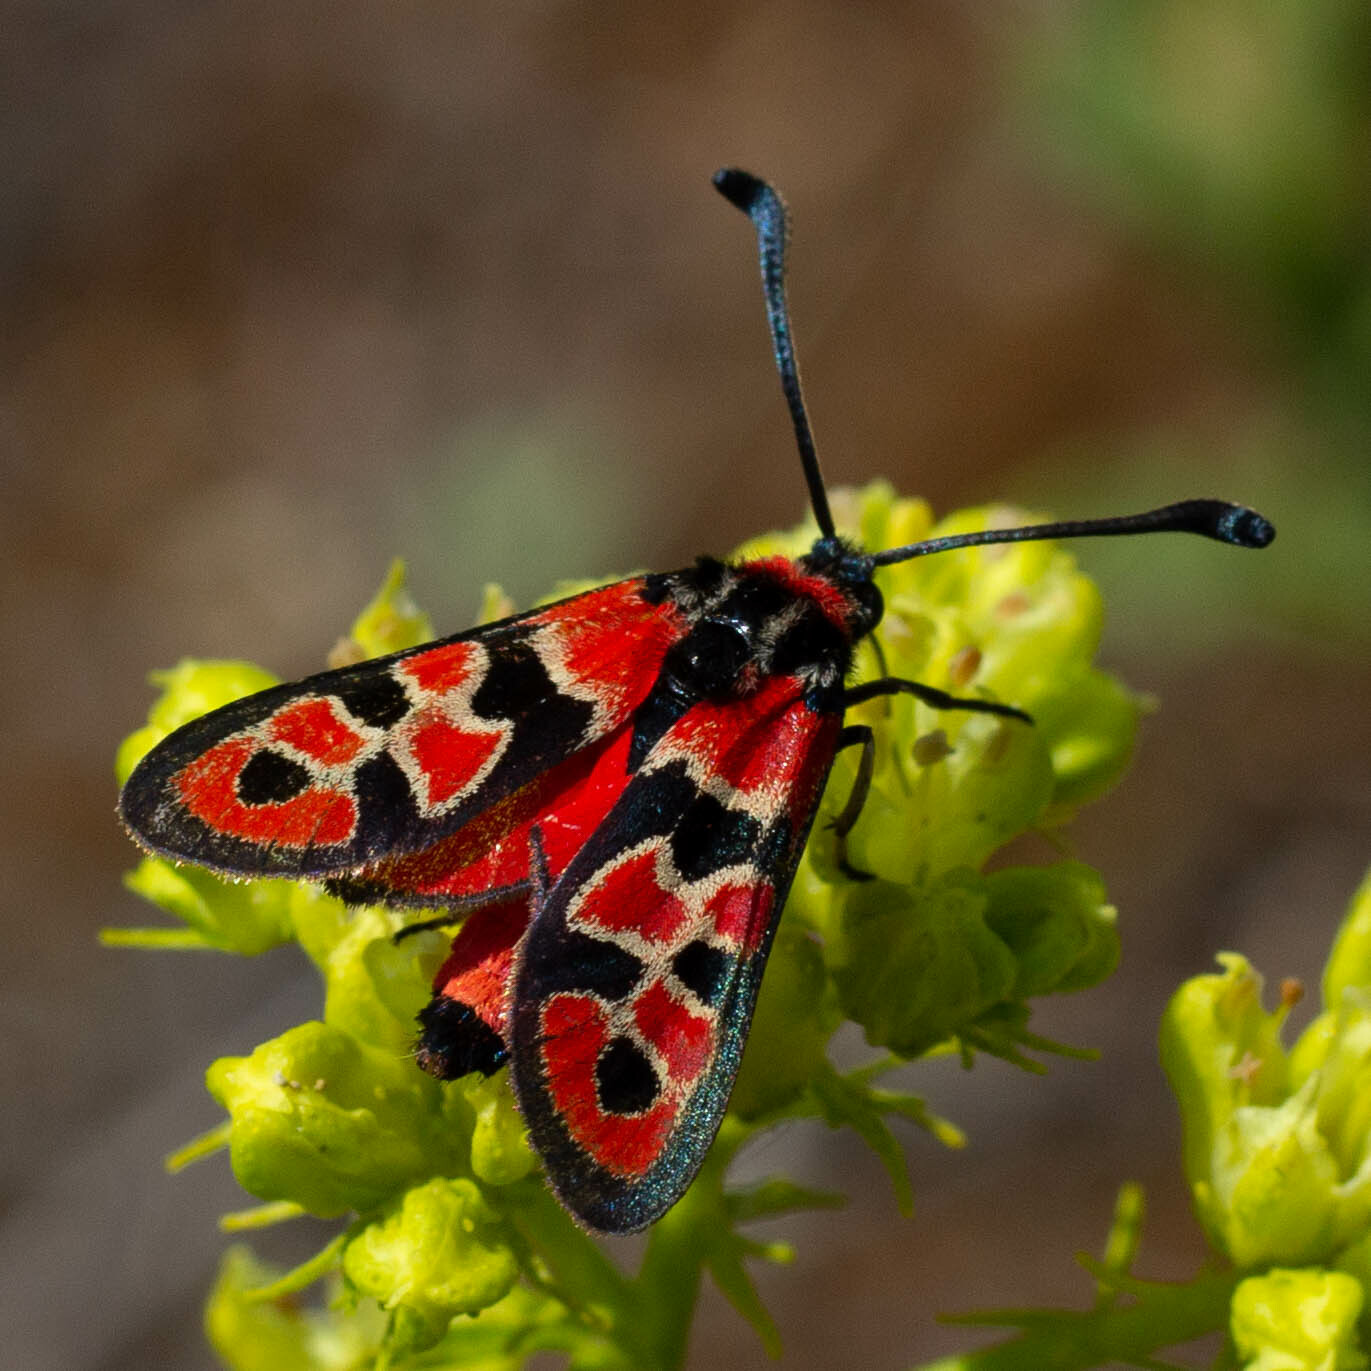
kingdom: Animalia
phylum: Arthropoda
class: Insecta
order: Lepidoptera
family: Zygaenidae
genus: Zygaena
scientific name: Zygaena fausta
